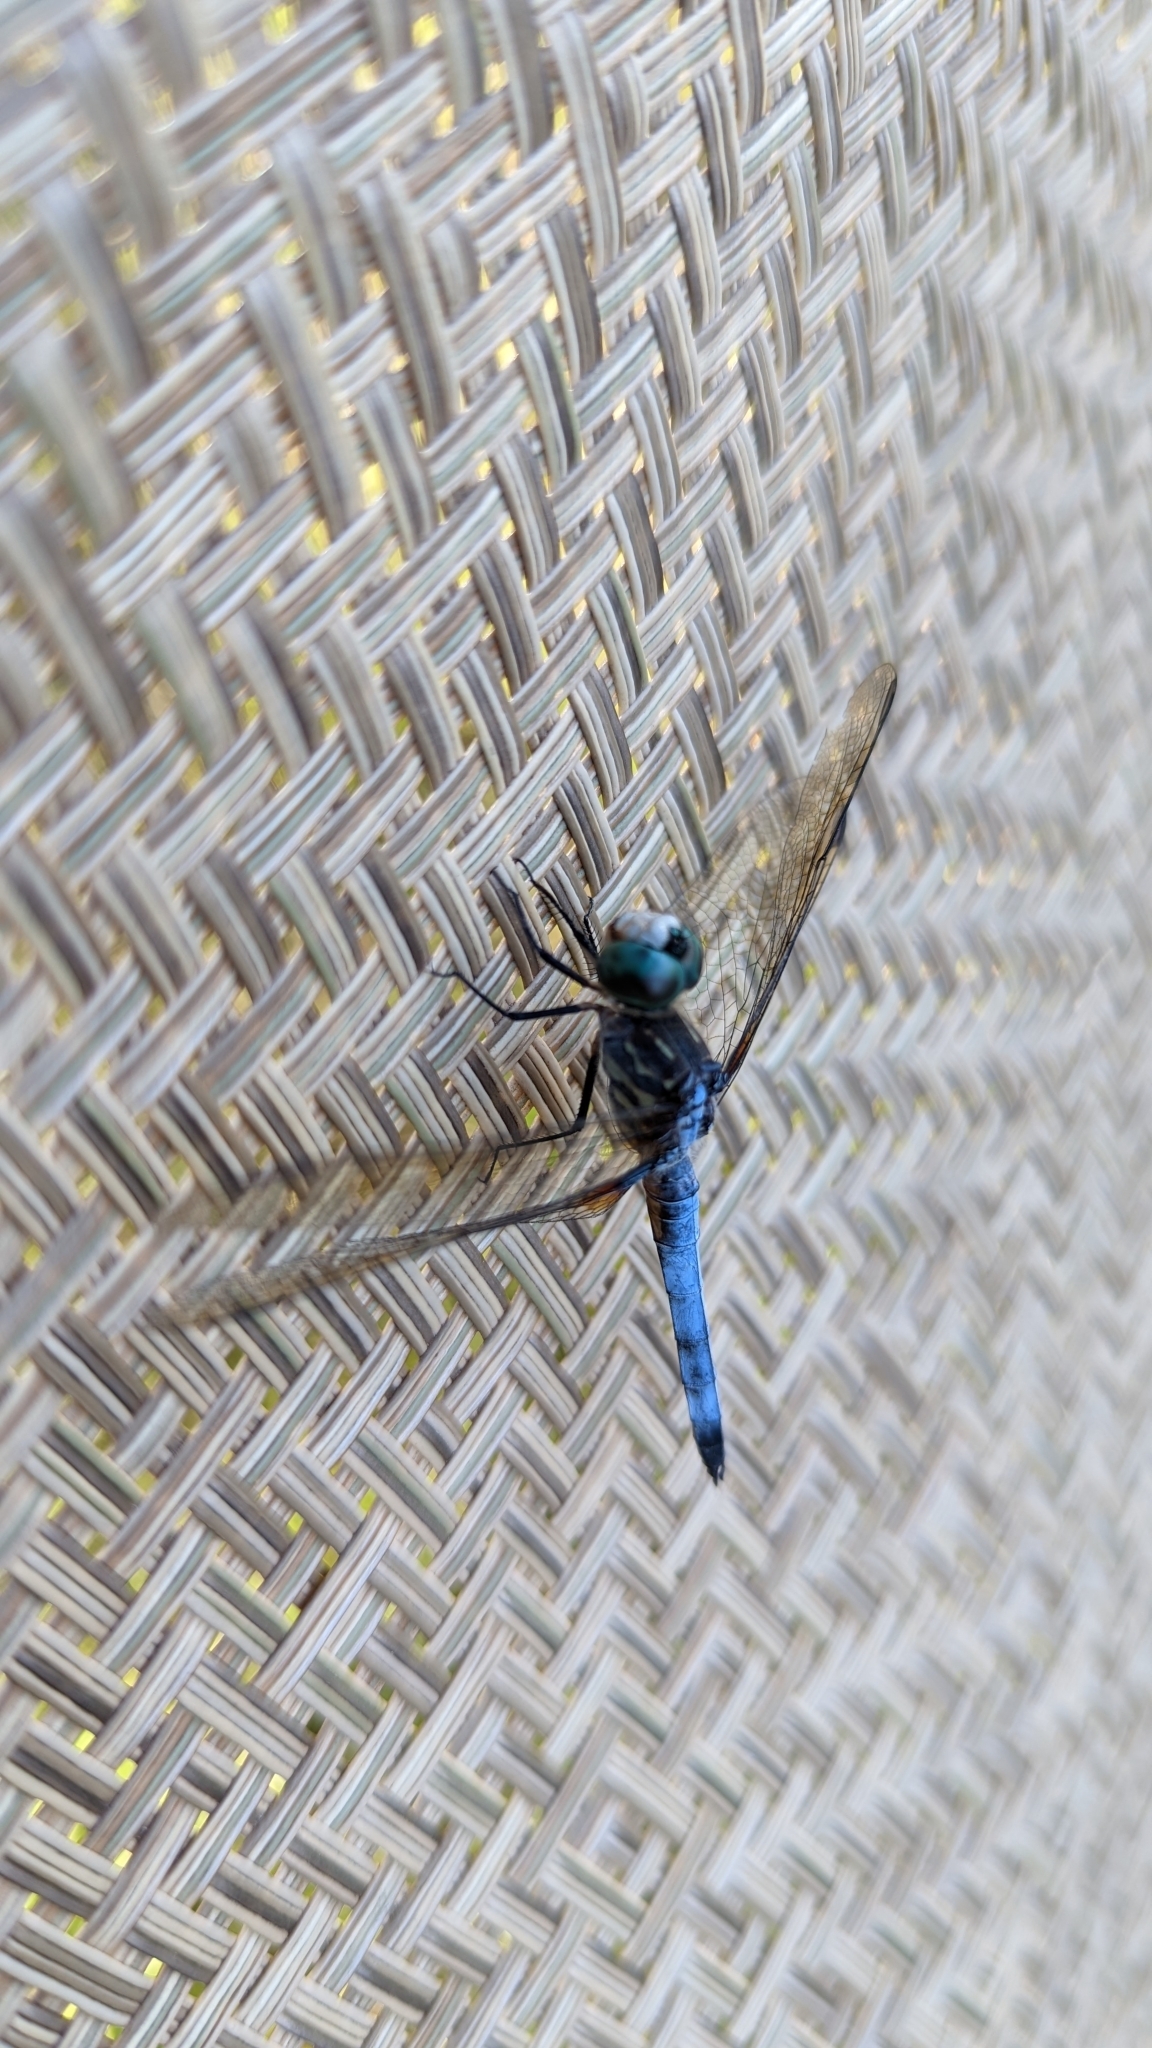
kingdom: Animalia
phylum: Arthropoda
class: Insecta
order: Odonata
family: Libellulidae
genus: Pachydiplax
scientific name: Pachydiplax longipennis
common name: Blue dasher
